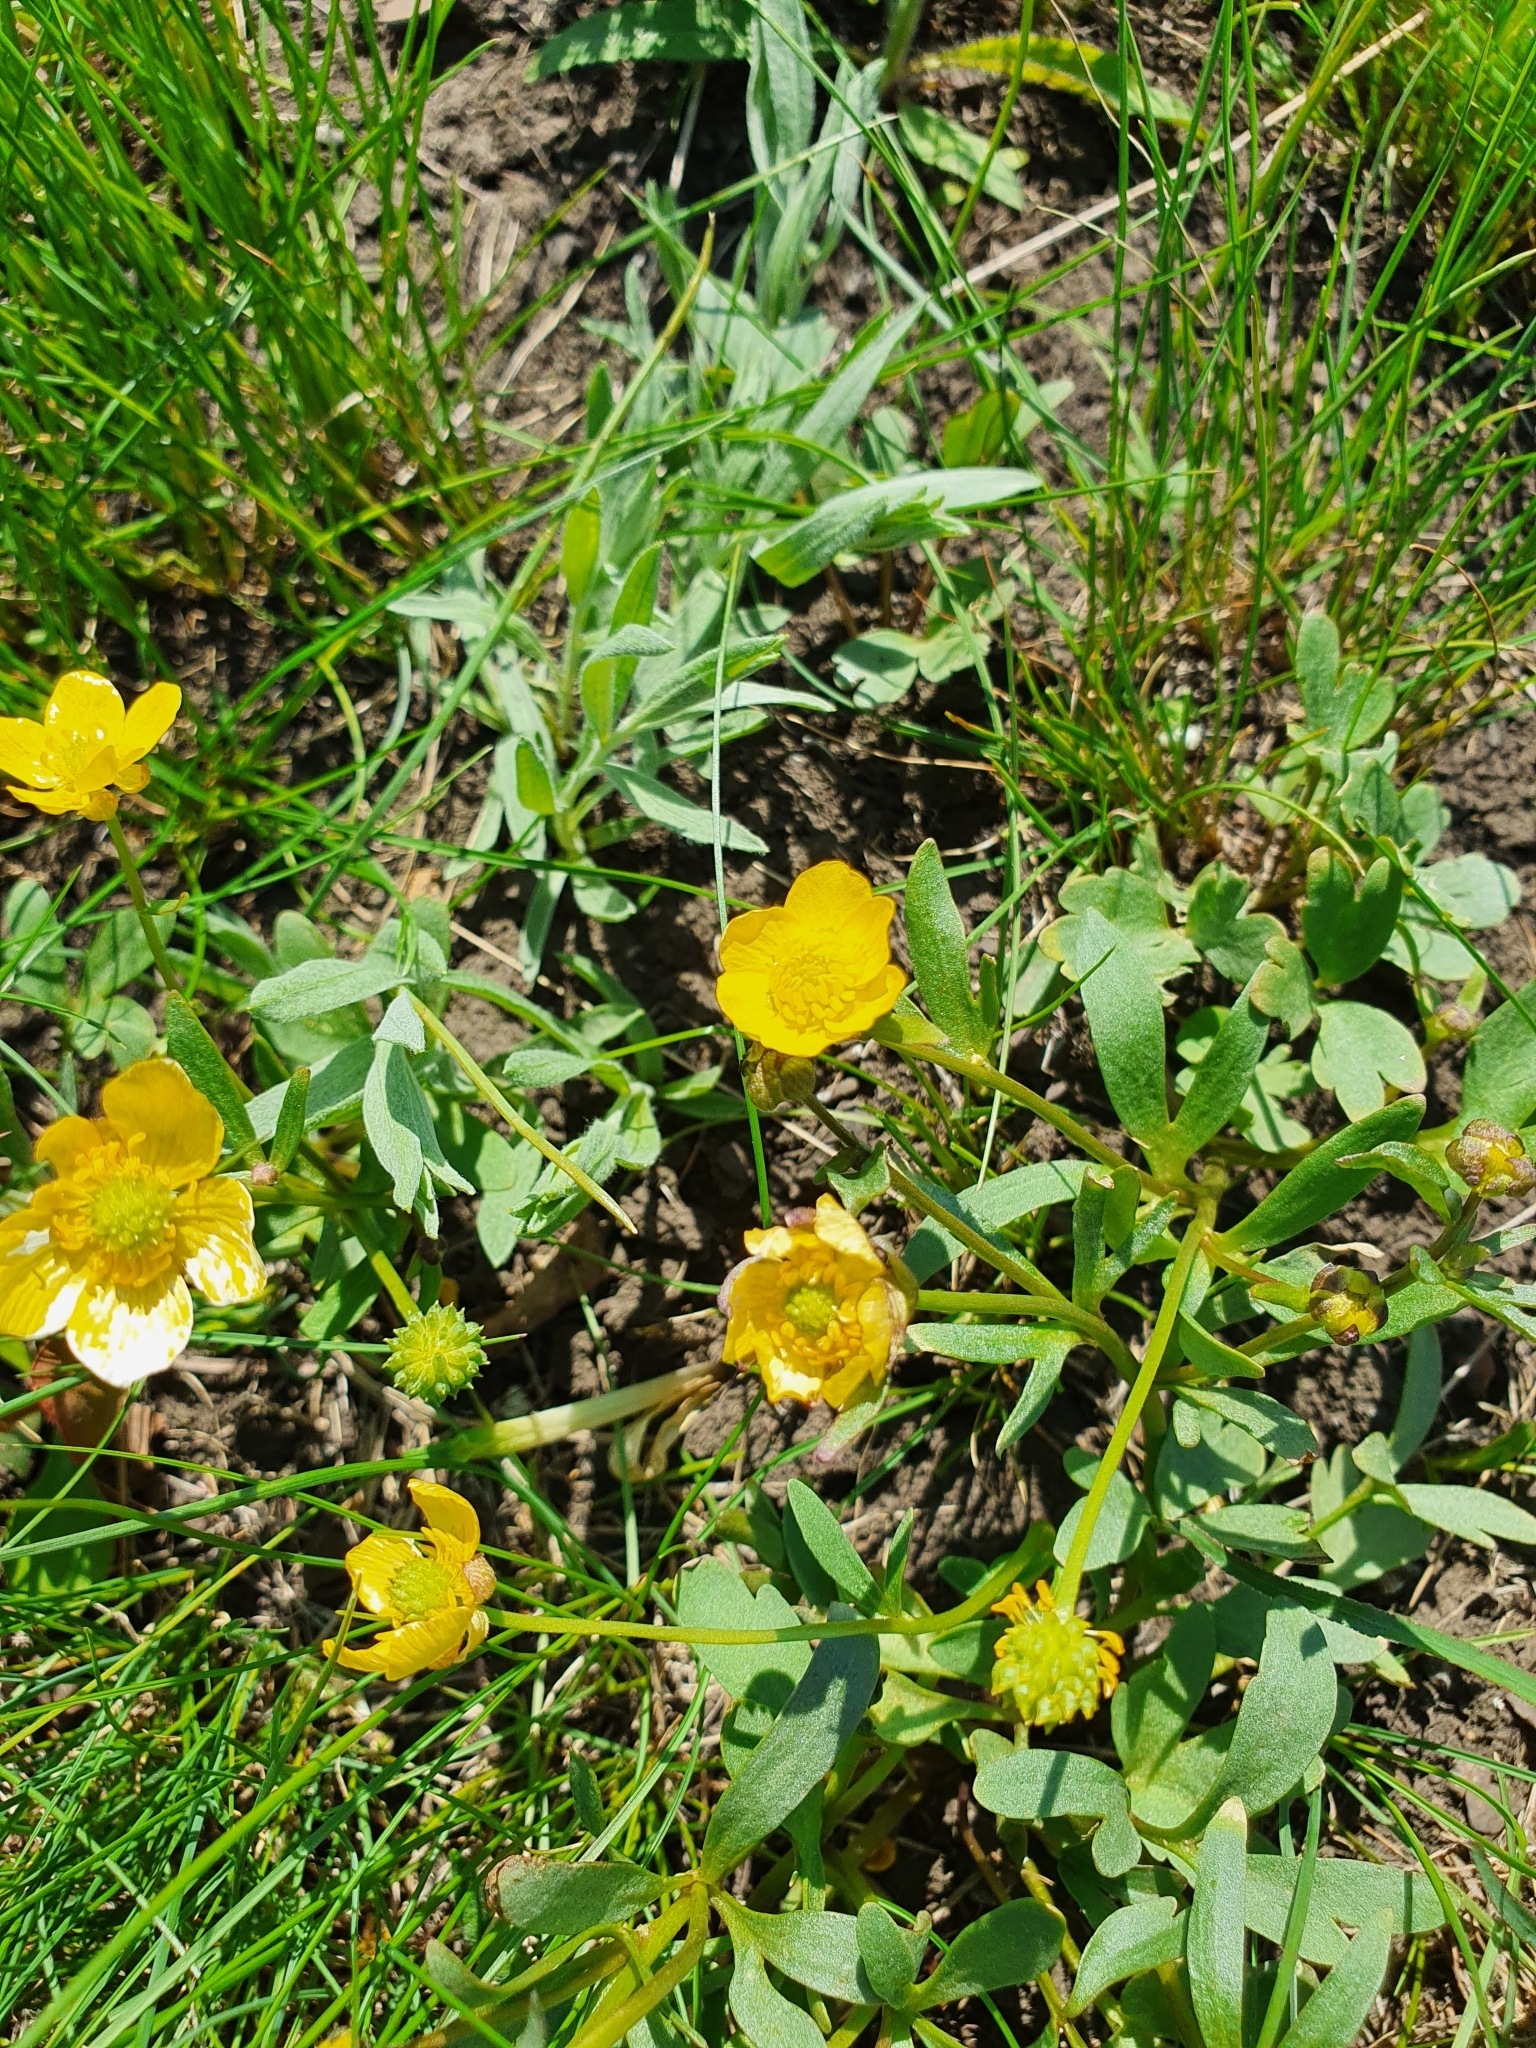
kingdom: Plantae
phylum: Tracheophyta
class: Magnoliopsida
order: Ranunculales
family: Ranunculaceae
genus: Ranunculus
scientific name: Ranunculus polyrhizos
